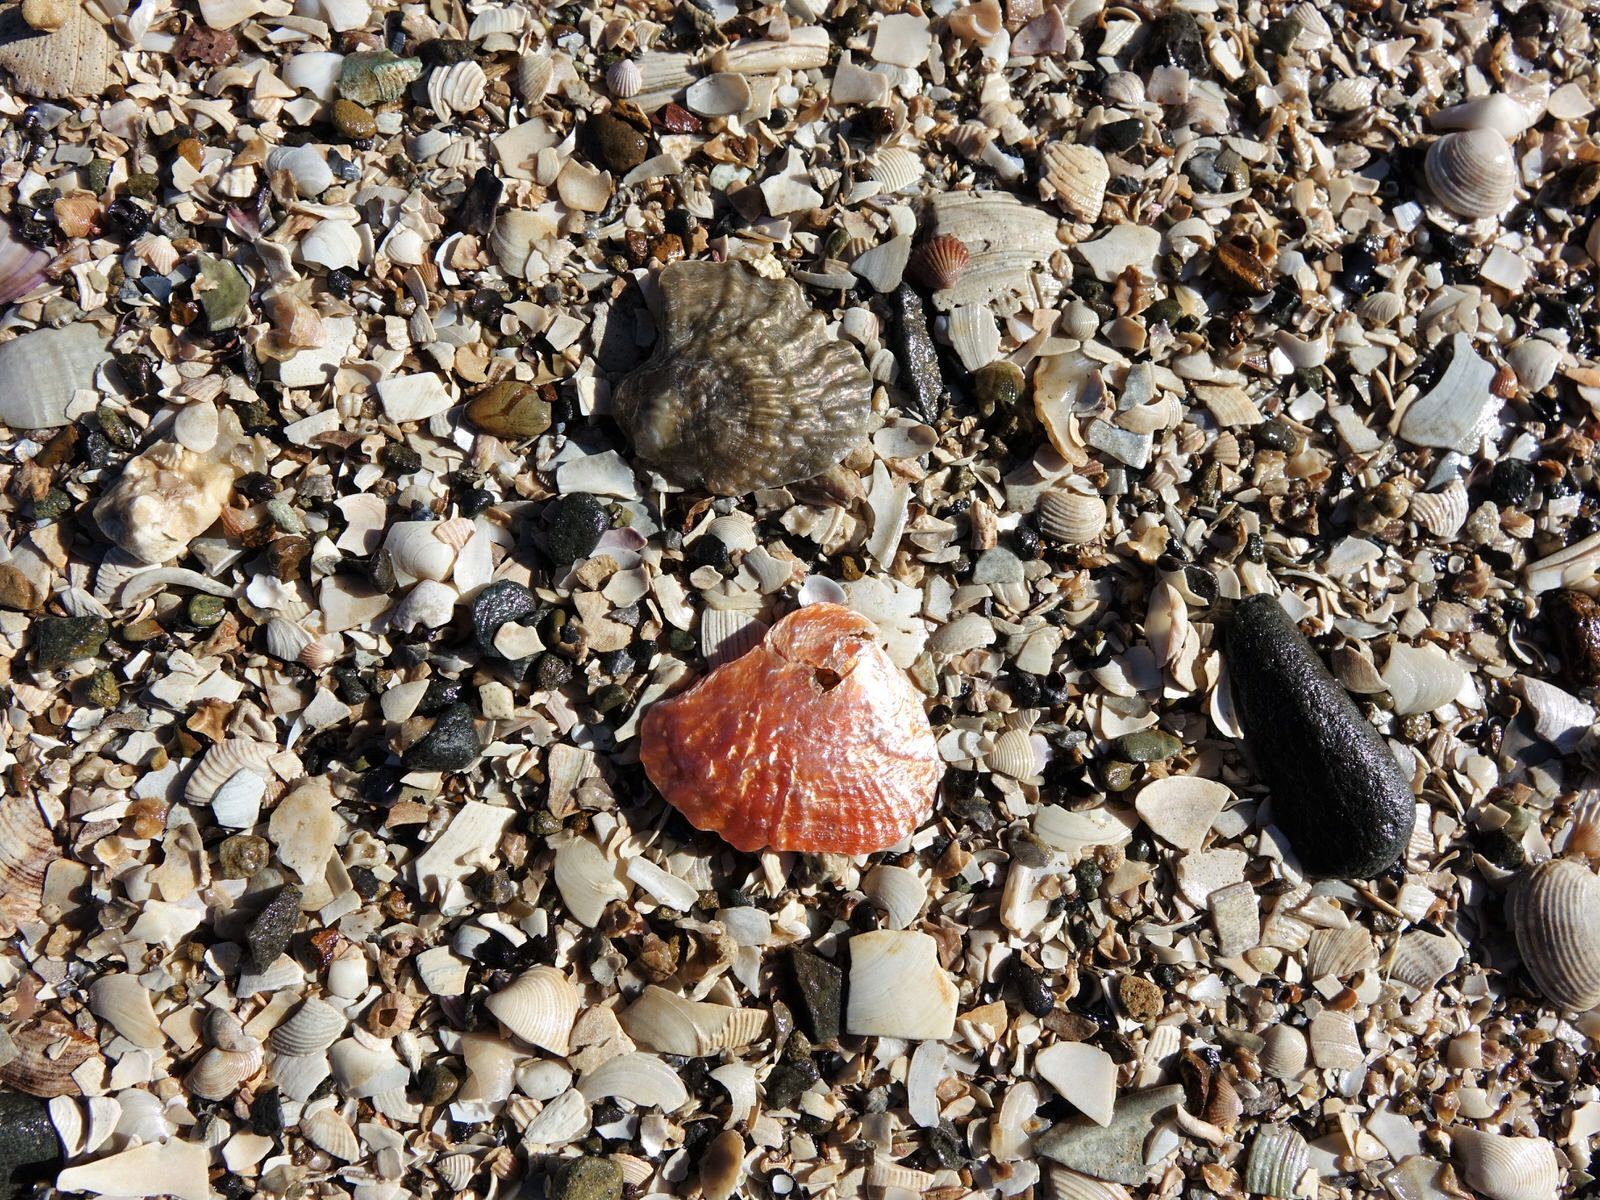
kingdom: Animalia
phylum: Mollusca
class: Bivalvia
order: Pectinida
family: Anomiidae
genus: Anomia
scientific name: Anomia trigonopsis
